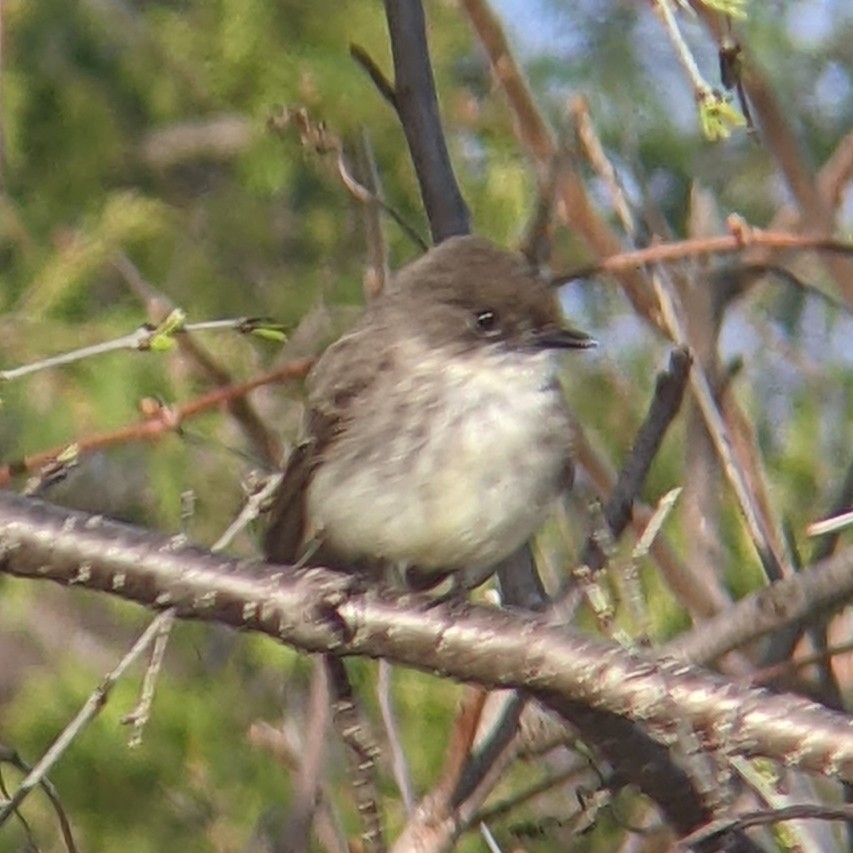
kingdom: Animalia
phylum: Chordata
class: Aves
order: Passeriformes
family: Tyrannidae
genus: Sayornis
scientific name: Sayornis phoebe
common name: Eastern phoebe
